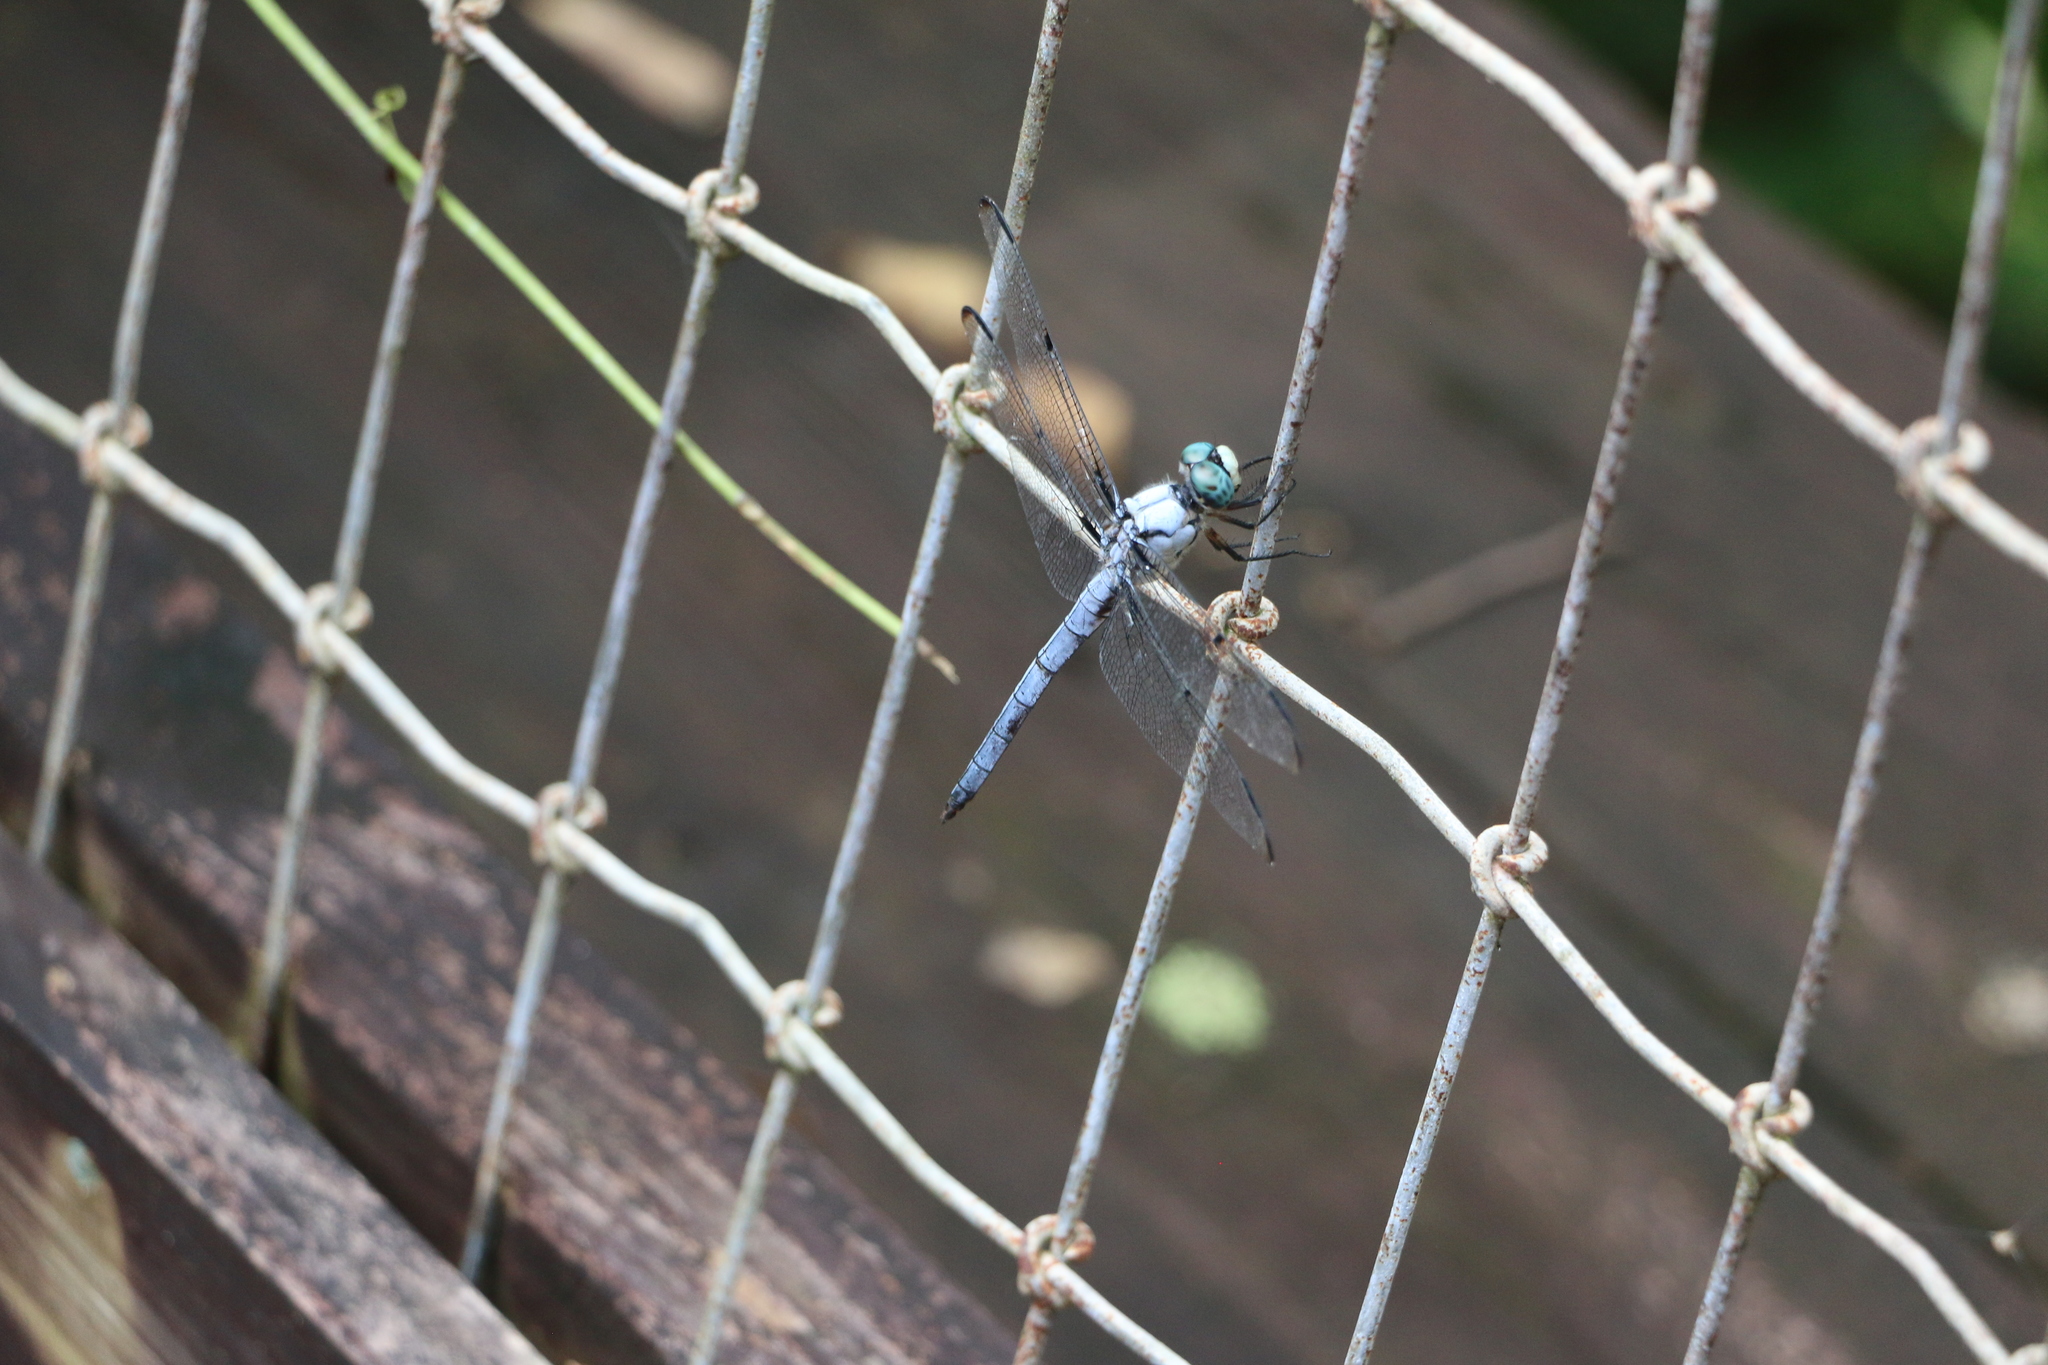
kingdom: Animalia
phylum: Arthropoda
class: Insecta
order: Odonata
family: Libellulidae
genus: Libellula
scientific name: Libellula vibrans
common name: Great blue skimmer
